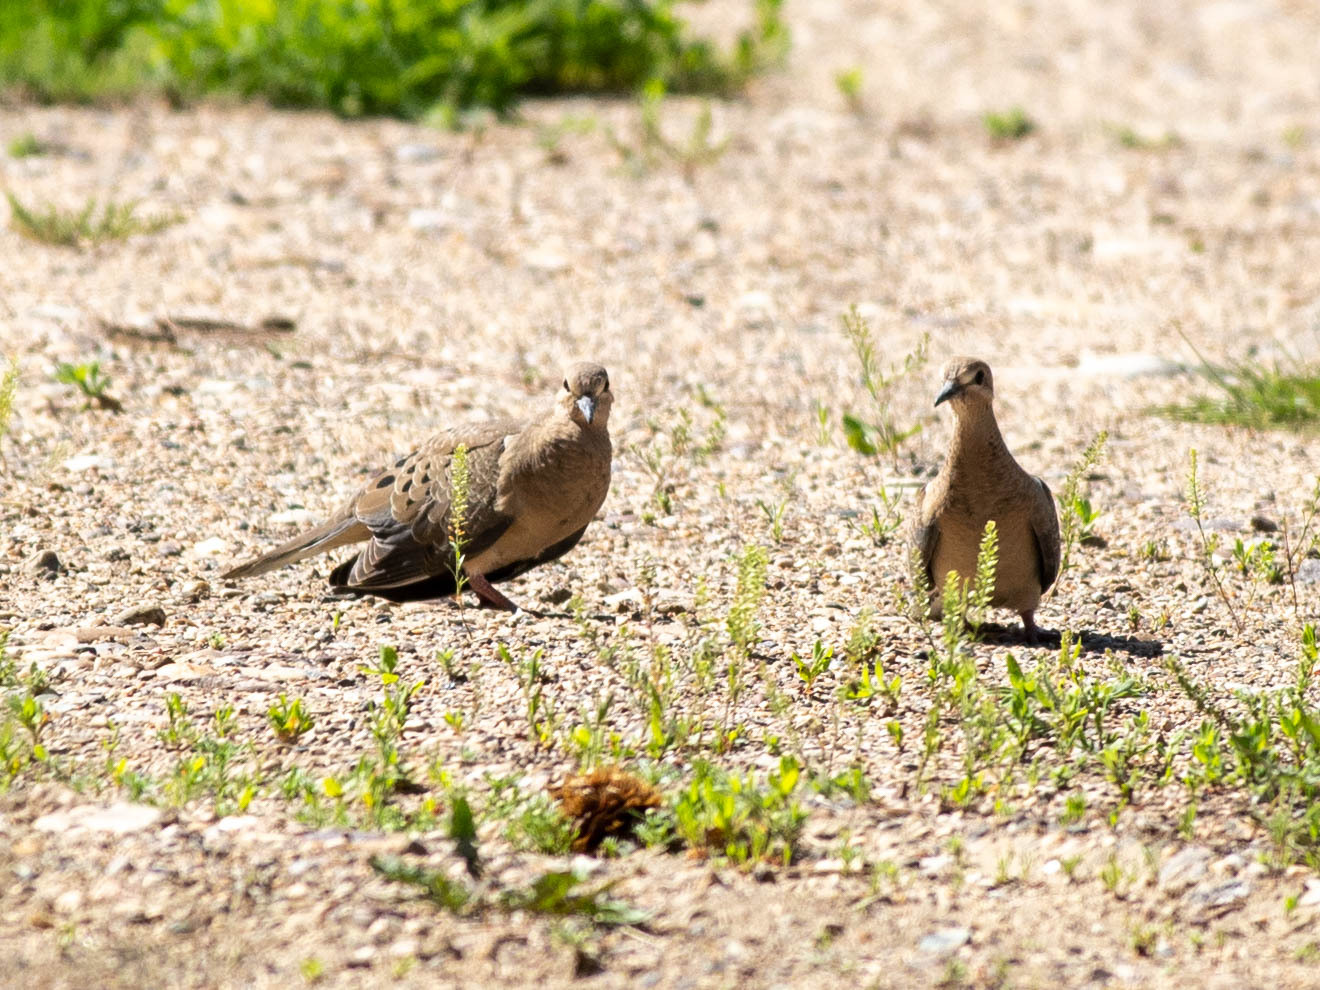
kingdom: Animalia
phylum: Chordata
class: Aves
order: Columbiformes
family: Columbidae
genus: Zenaida
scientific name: Zenaida macroura
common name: Mourning dove
